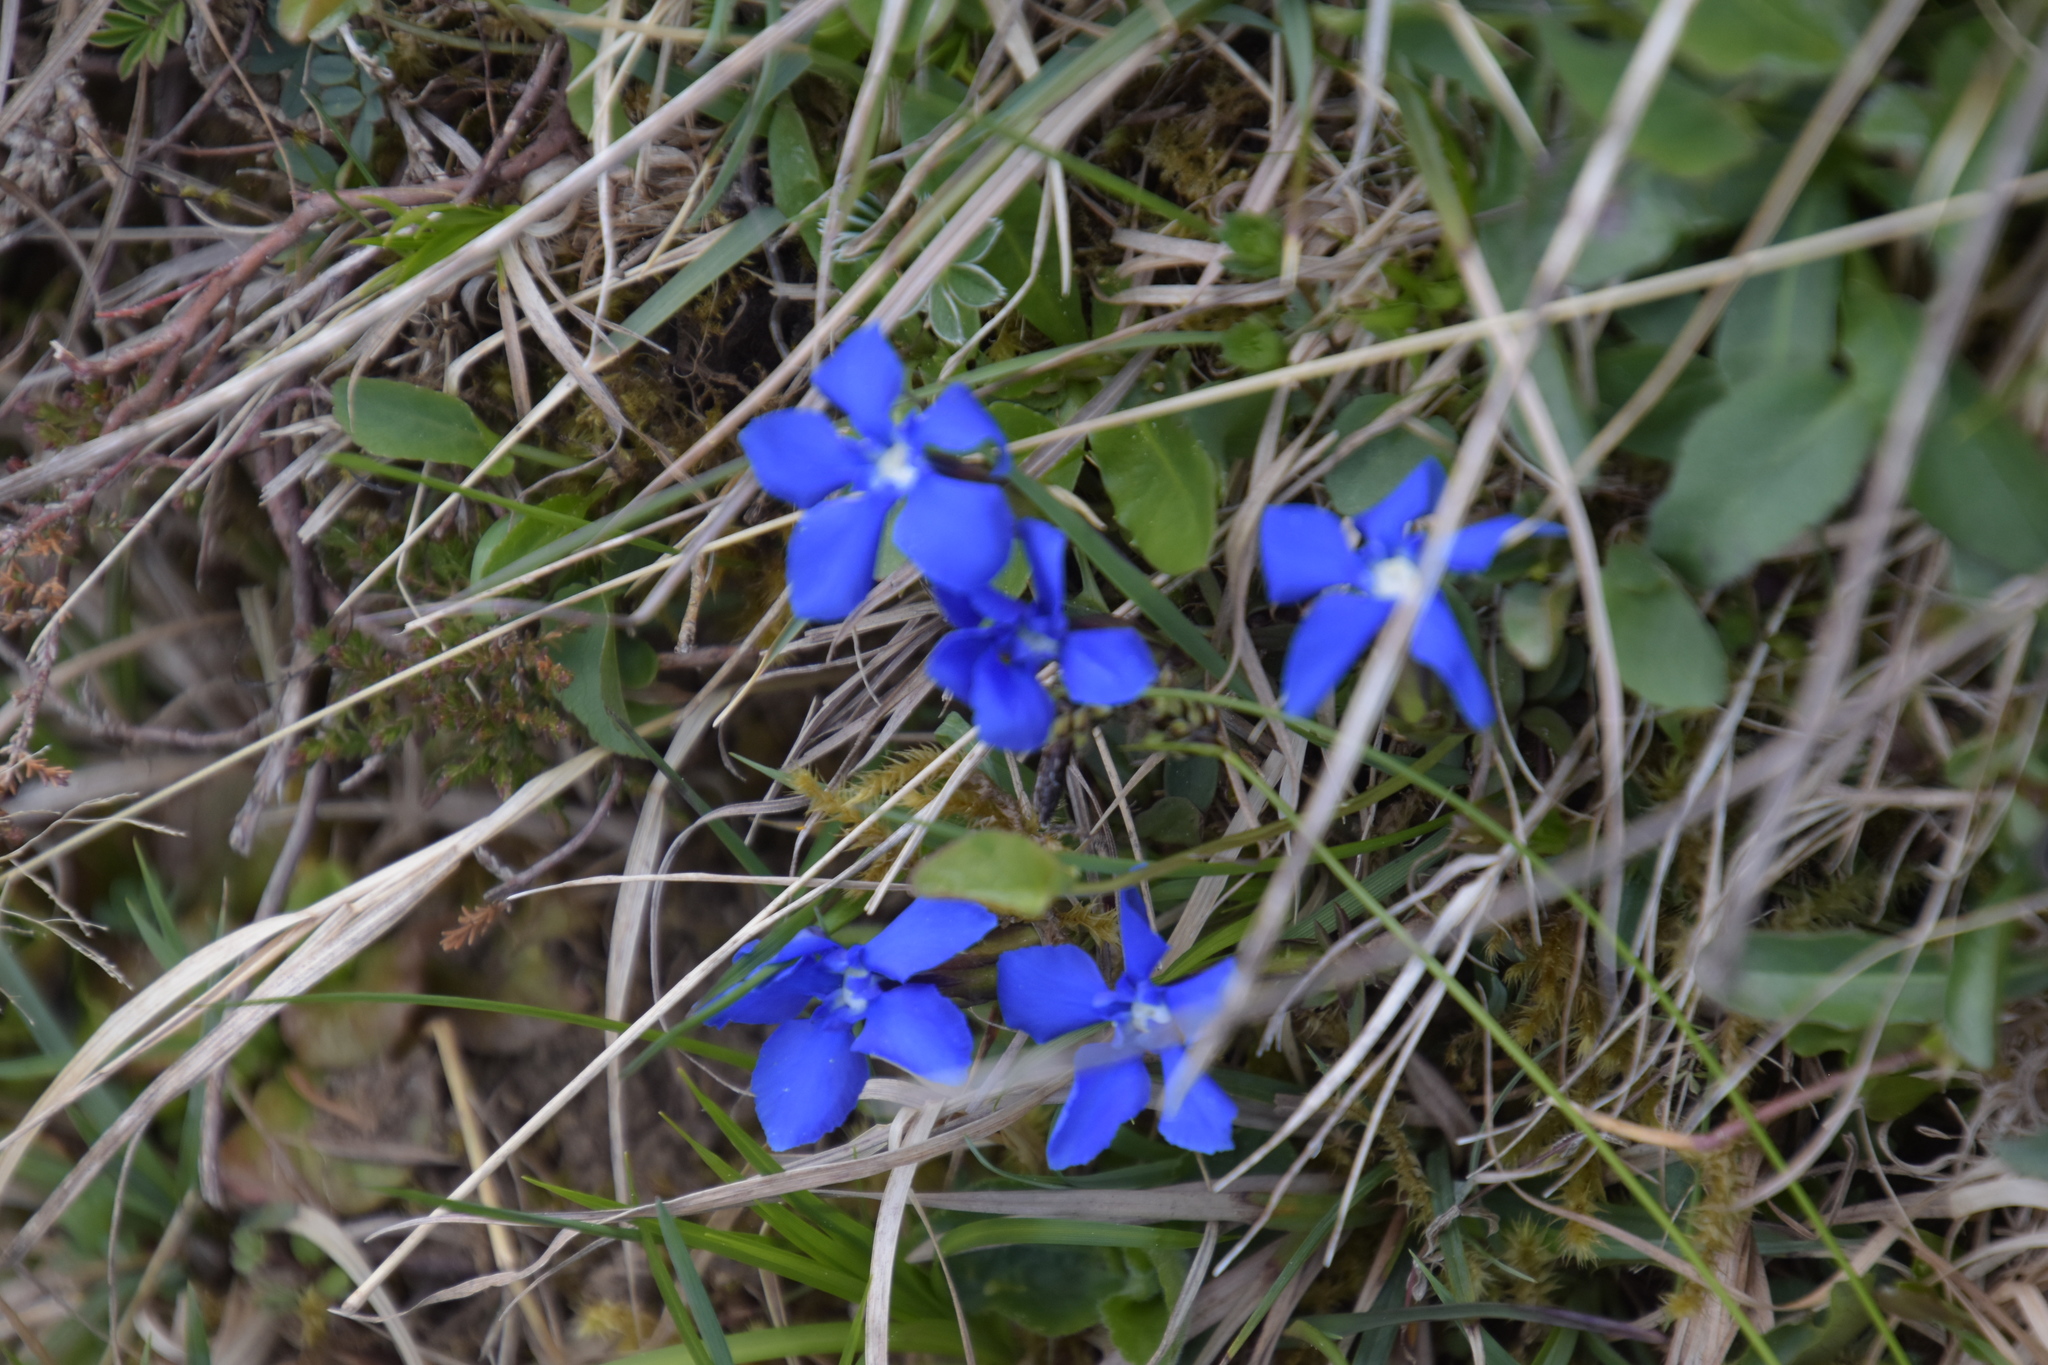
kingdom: Plantae
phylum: Tracheophyta
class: Magnoliopsida
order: Gentianales
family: Gentianaceae
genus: Gentiana
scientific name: Gentiana verna
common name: Spring gentian
